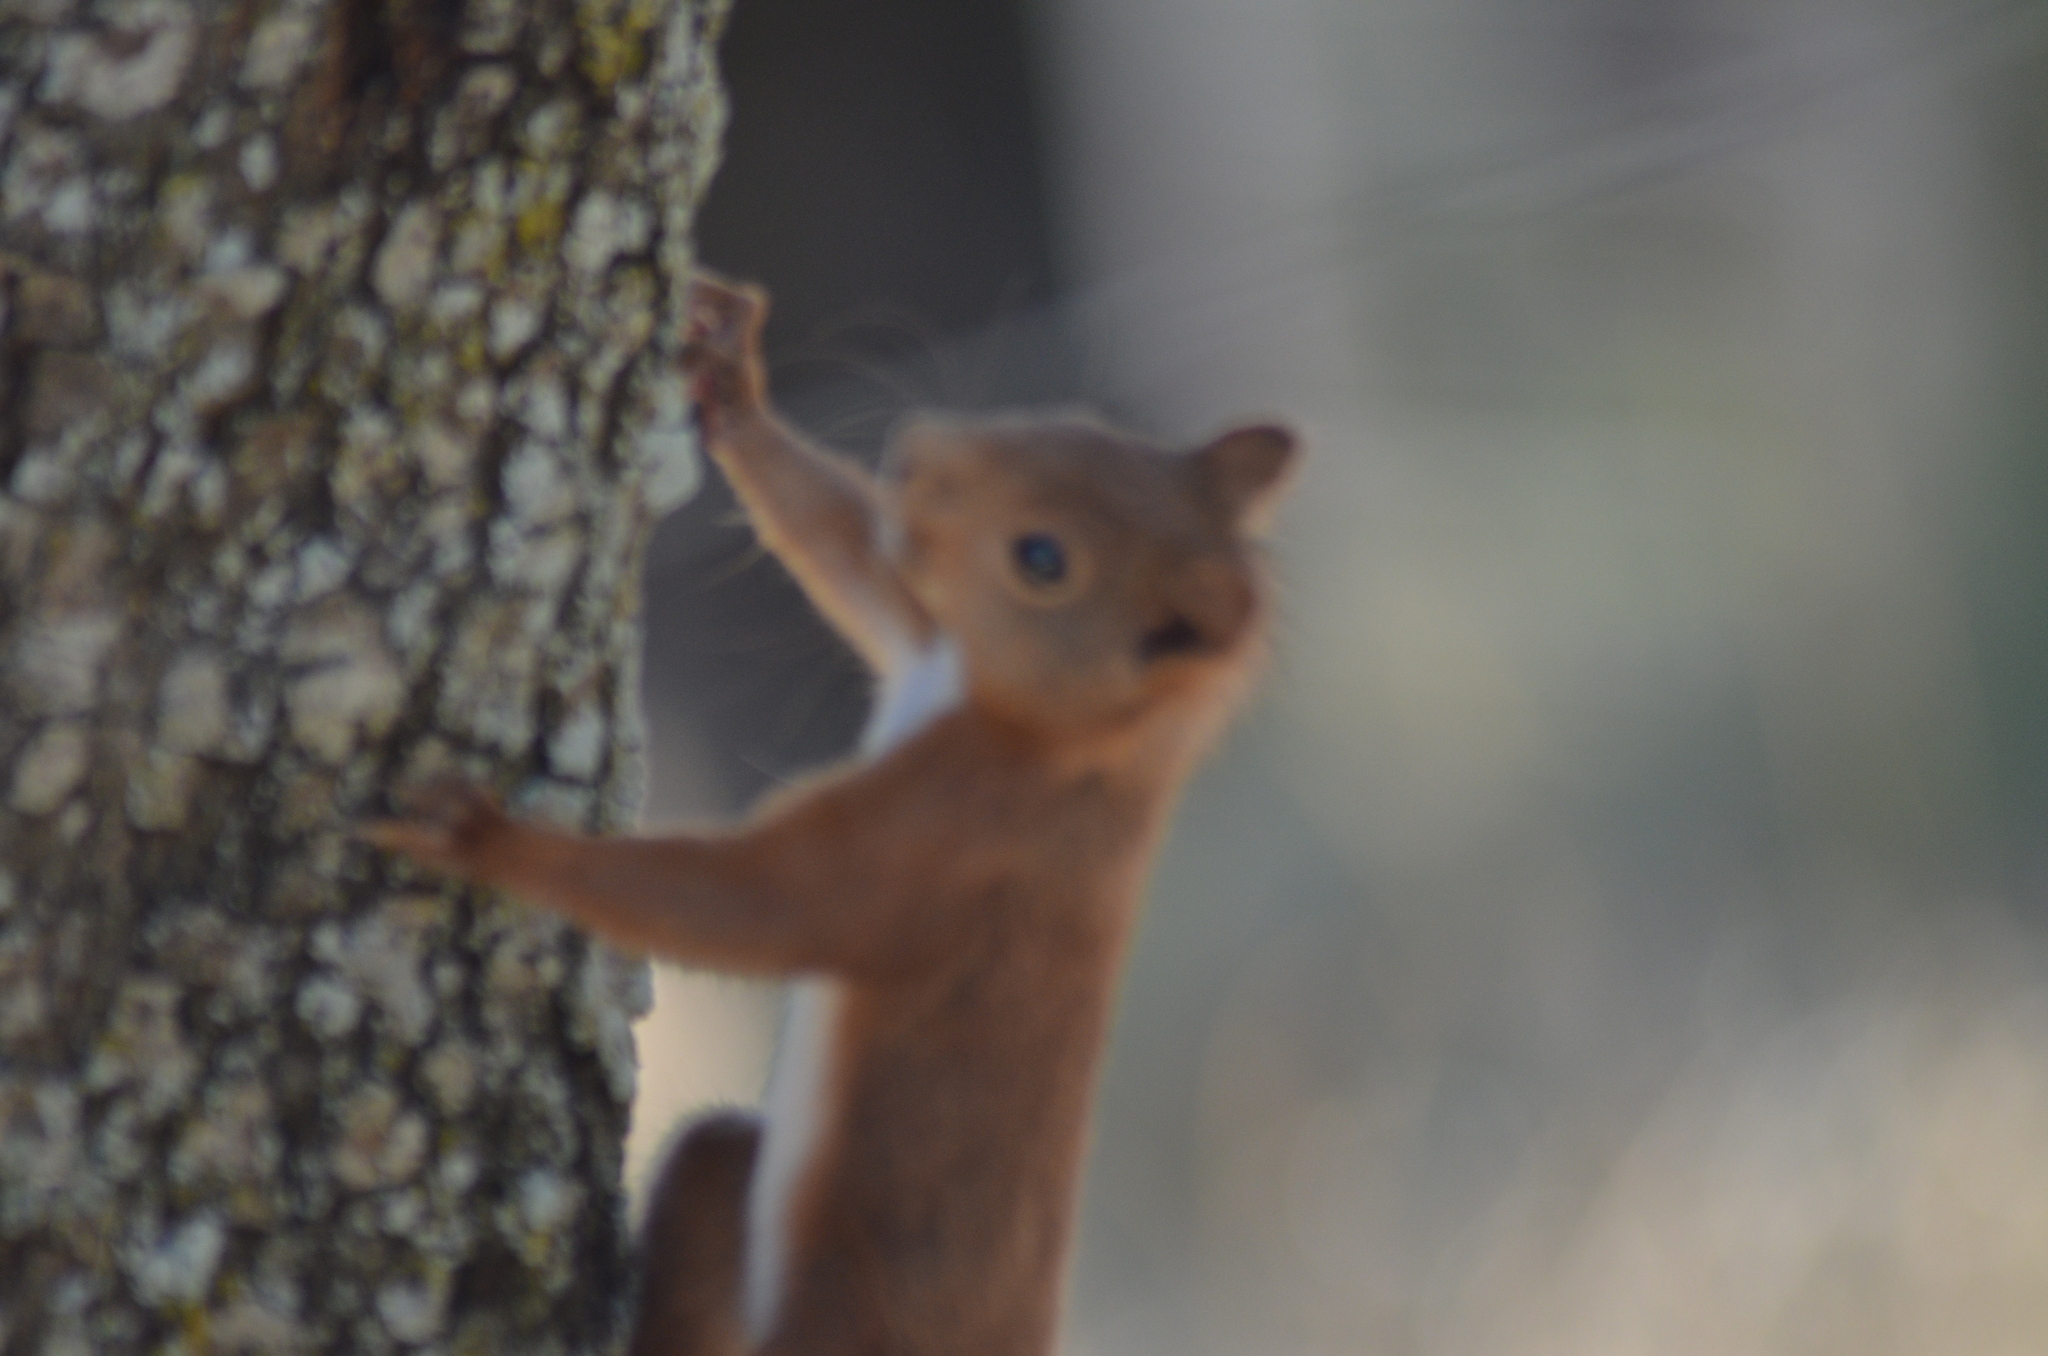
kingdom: Animalia
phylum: Chordata
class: Mammalia
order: Rodentia
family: Sciuridae
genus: Sciurus
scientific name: Sciurus vulgaris
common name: Eurasian red squirrel
